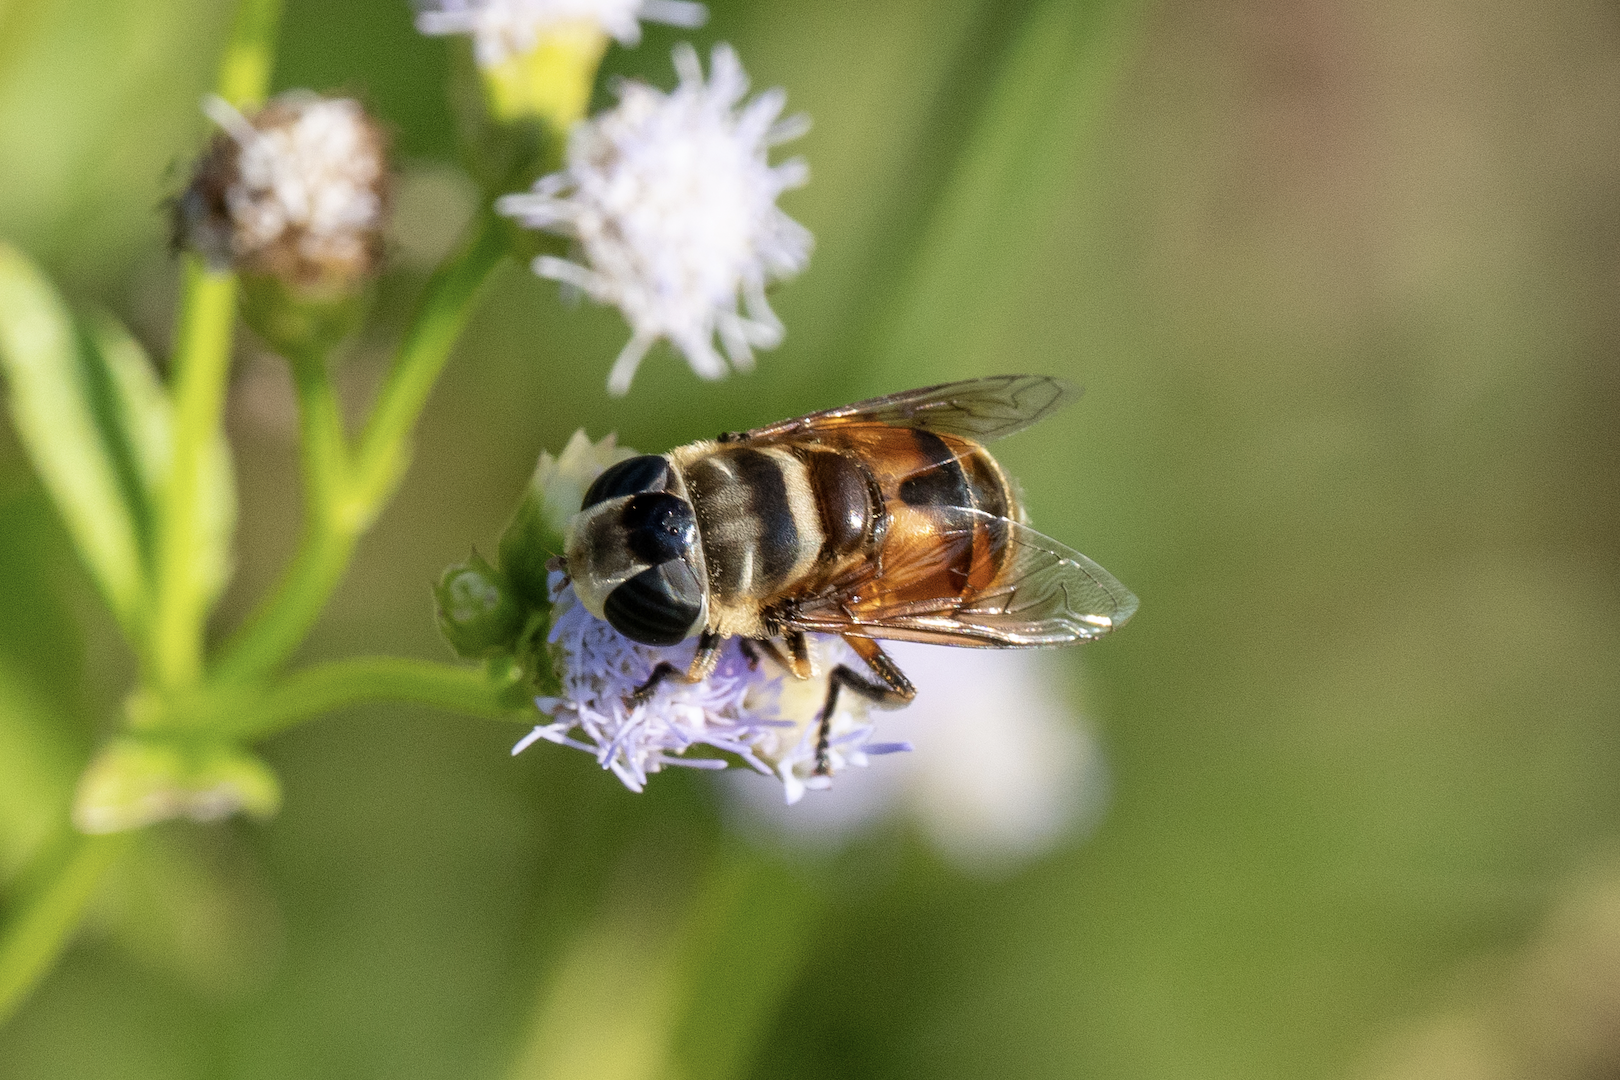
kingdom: Animalia
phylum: Arthropoda
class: Insecta
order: Diptera
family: Syrphidae
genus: Phytomia
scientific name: Phytomia errans
